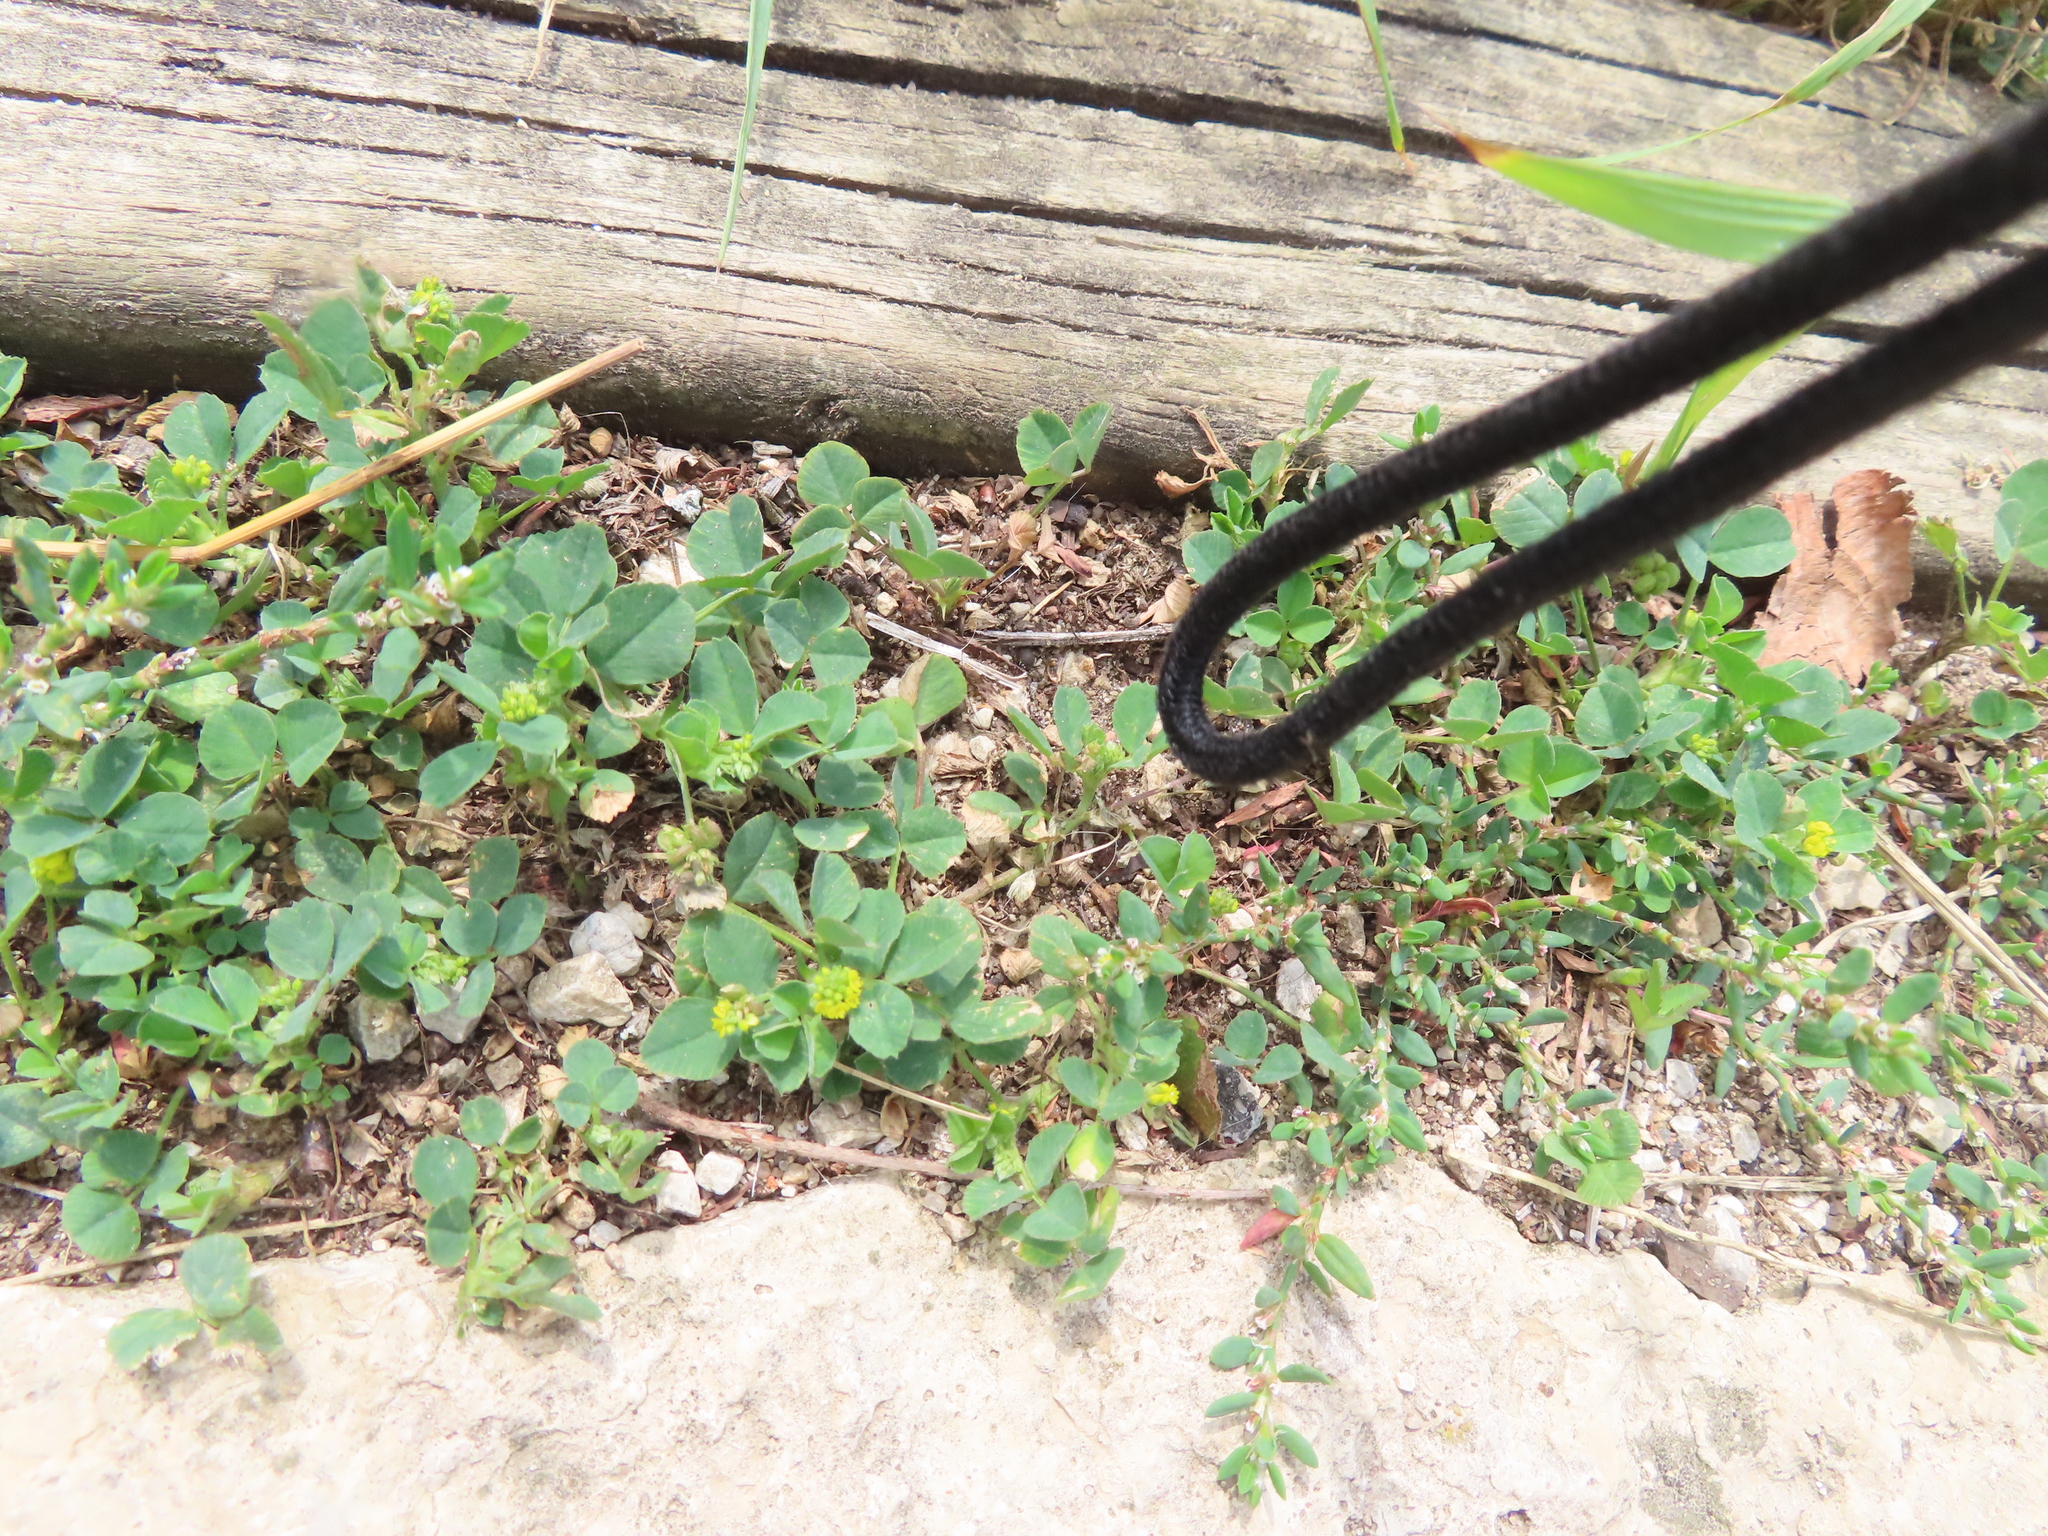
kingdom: Plantae
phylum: Tracheophyta
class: Magnoliopsida
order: Fabales
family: Fabaceae
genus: Medicago
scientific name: Medicago lupulina
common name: Black medick
